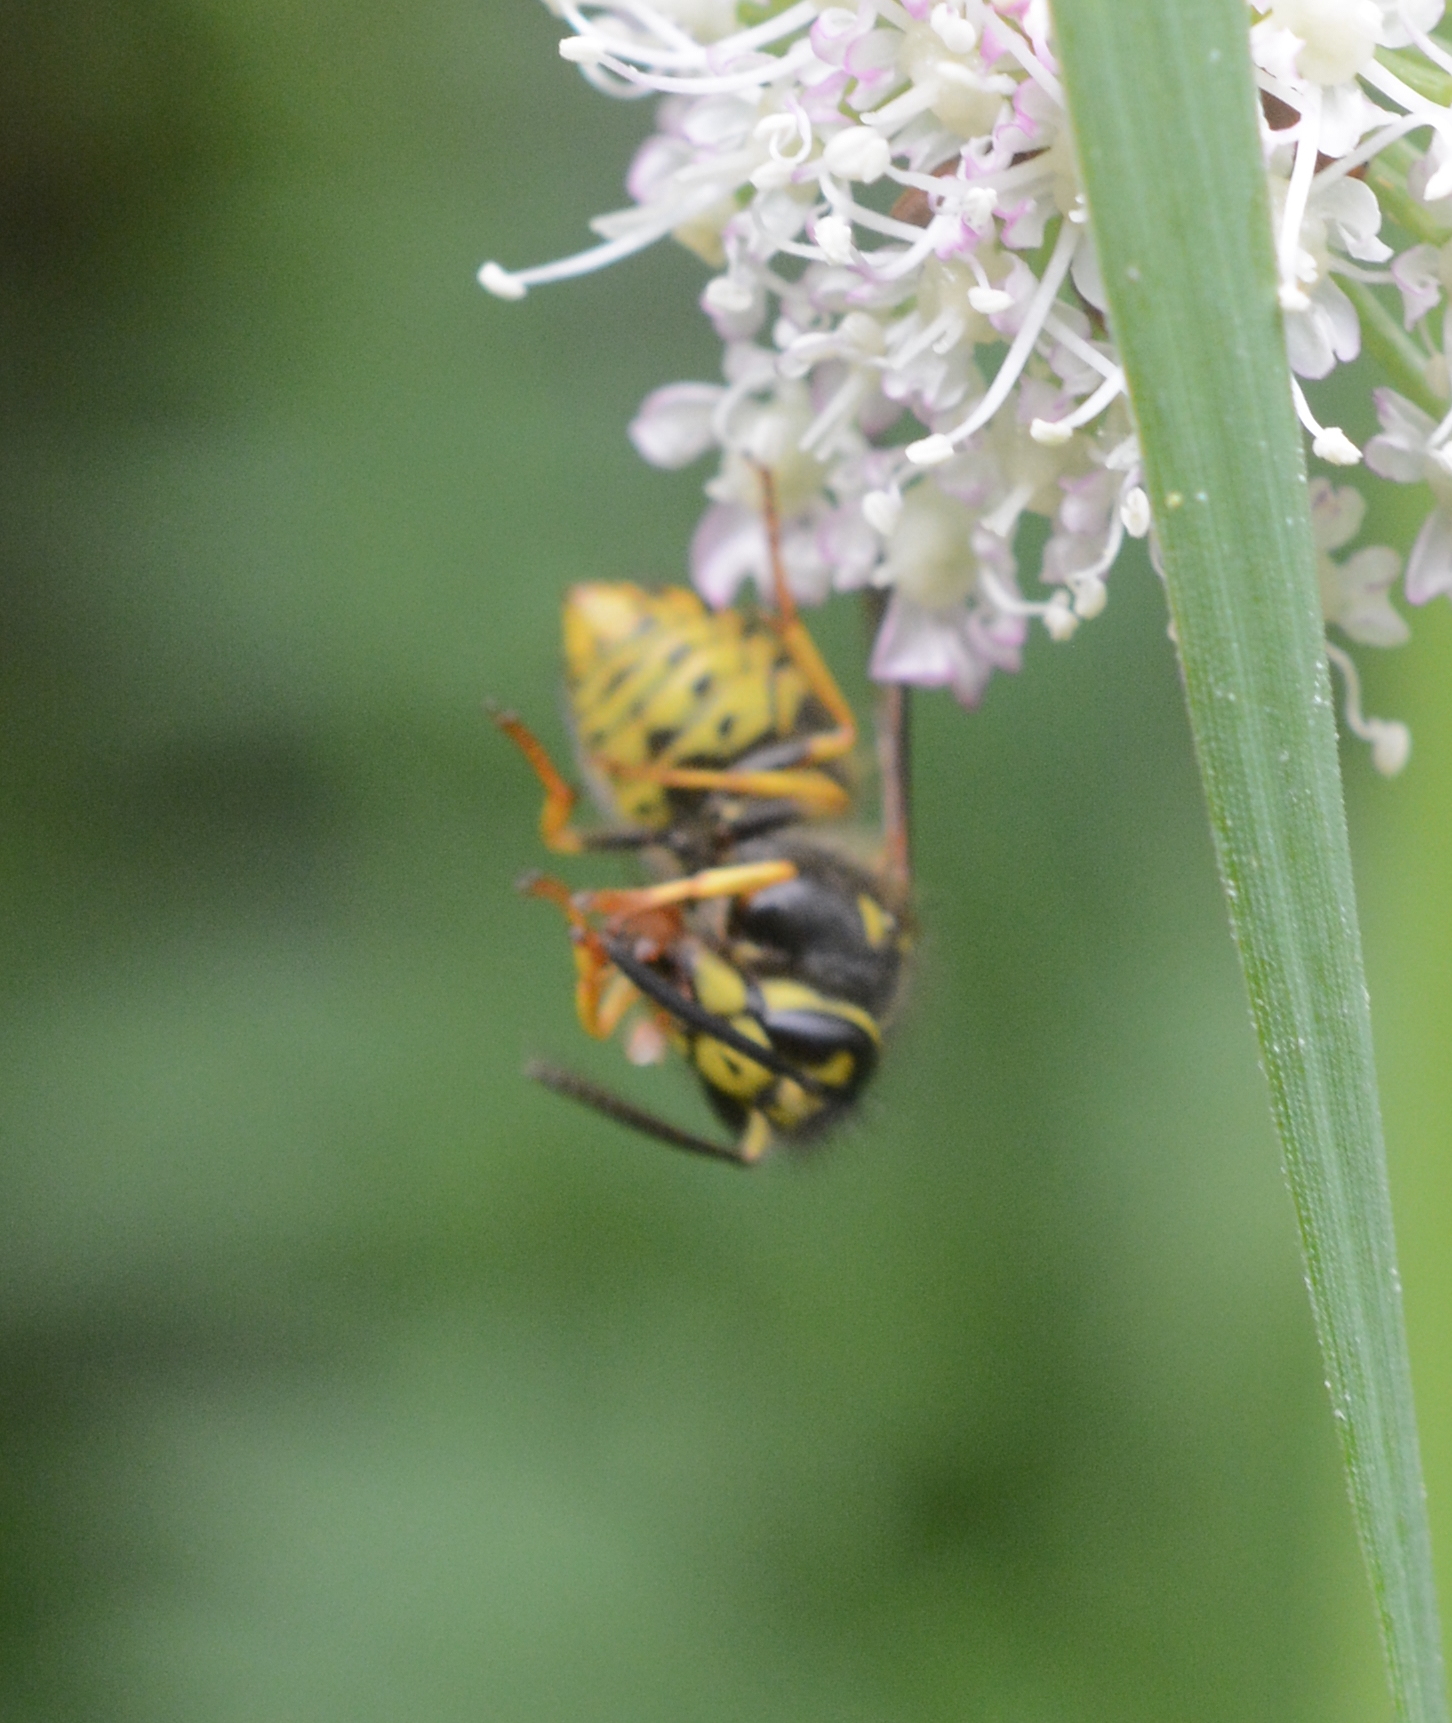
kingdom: Animalia
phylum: Arthropoda
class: Insecta
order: Hymenoptera
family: Vespidae
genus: Dolichovespula
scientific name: Dolichovespula arenaria
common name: Aerial yellowjacket
